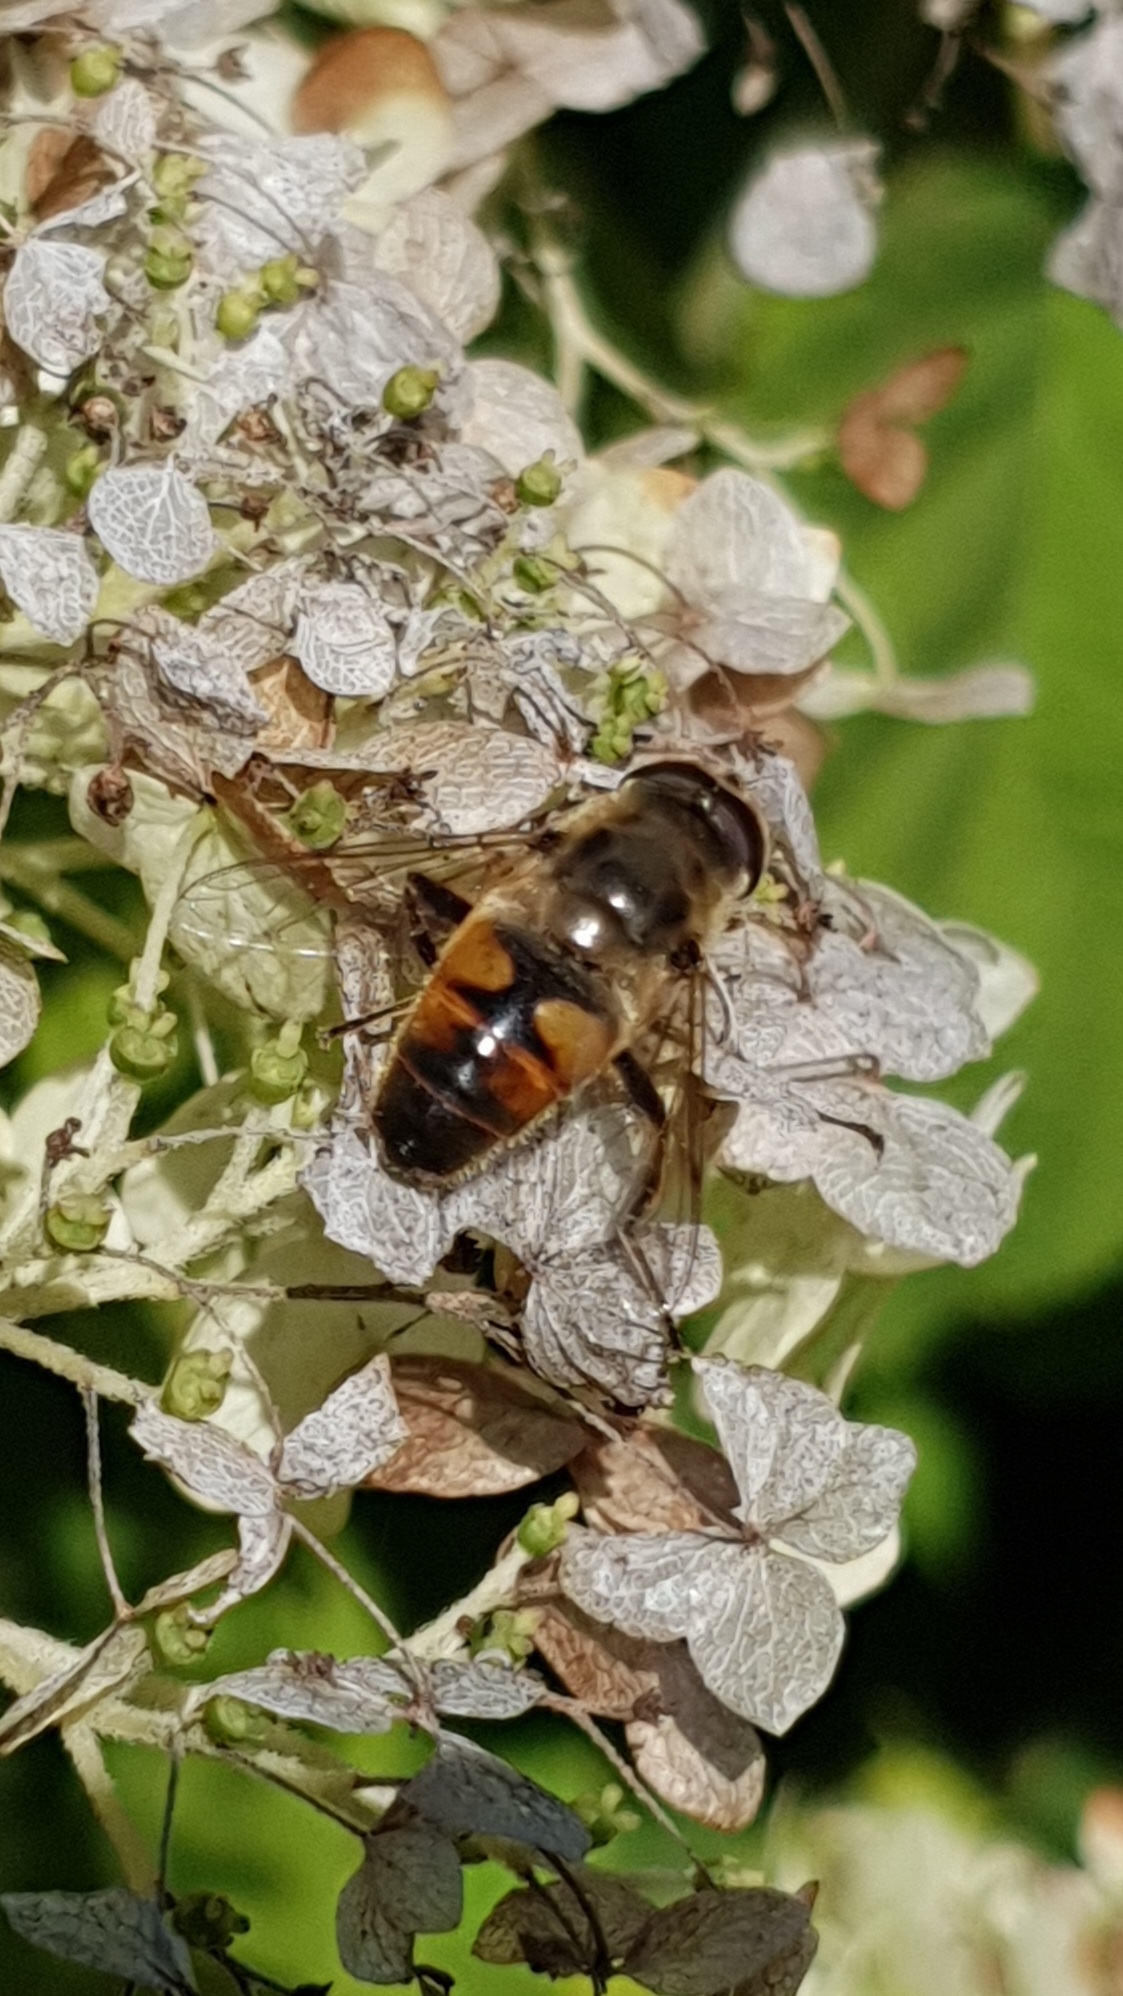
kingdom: Animalia
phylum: Arthropoda
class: Insecta
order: Diptera
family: Syrphidae
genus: Eristalis
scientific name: Eristalis tenax
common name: Drone fly
